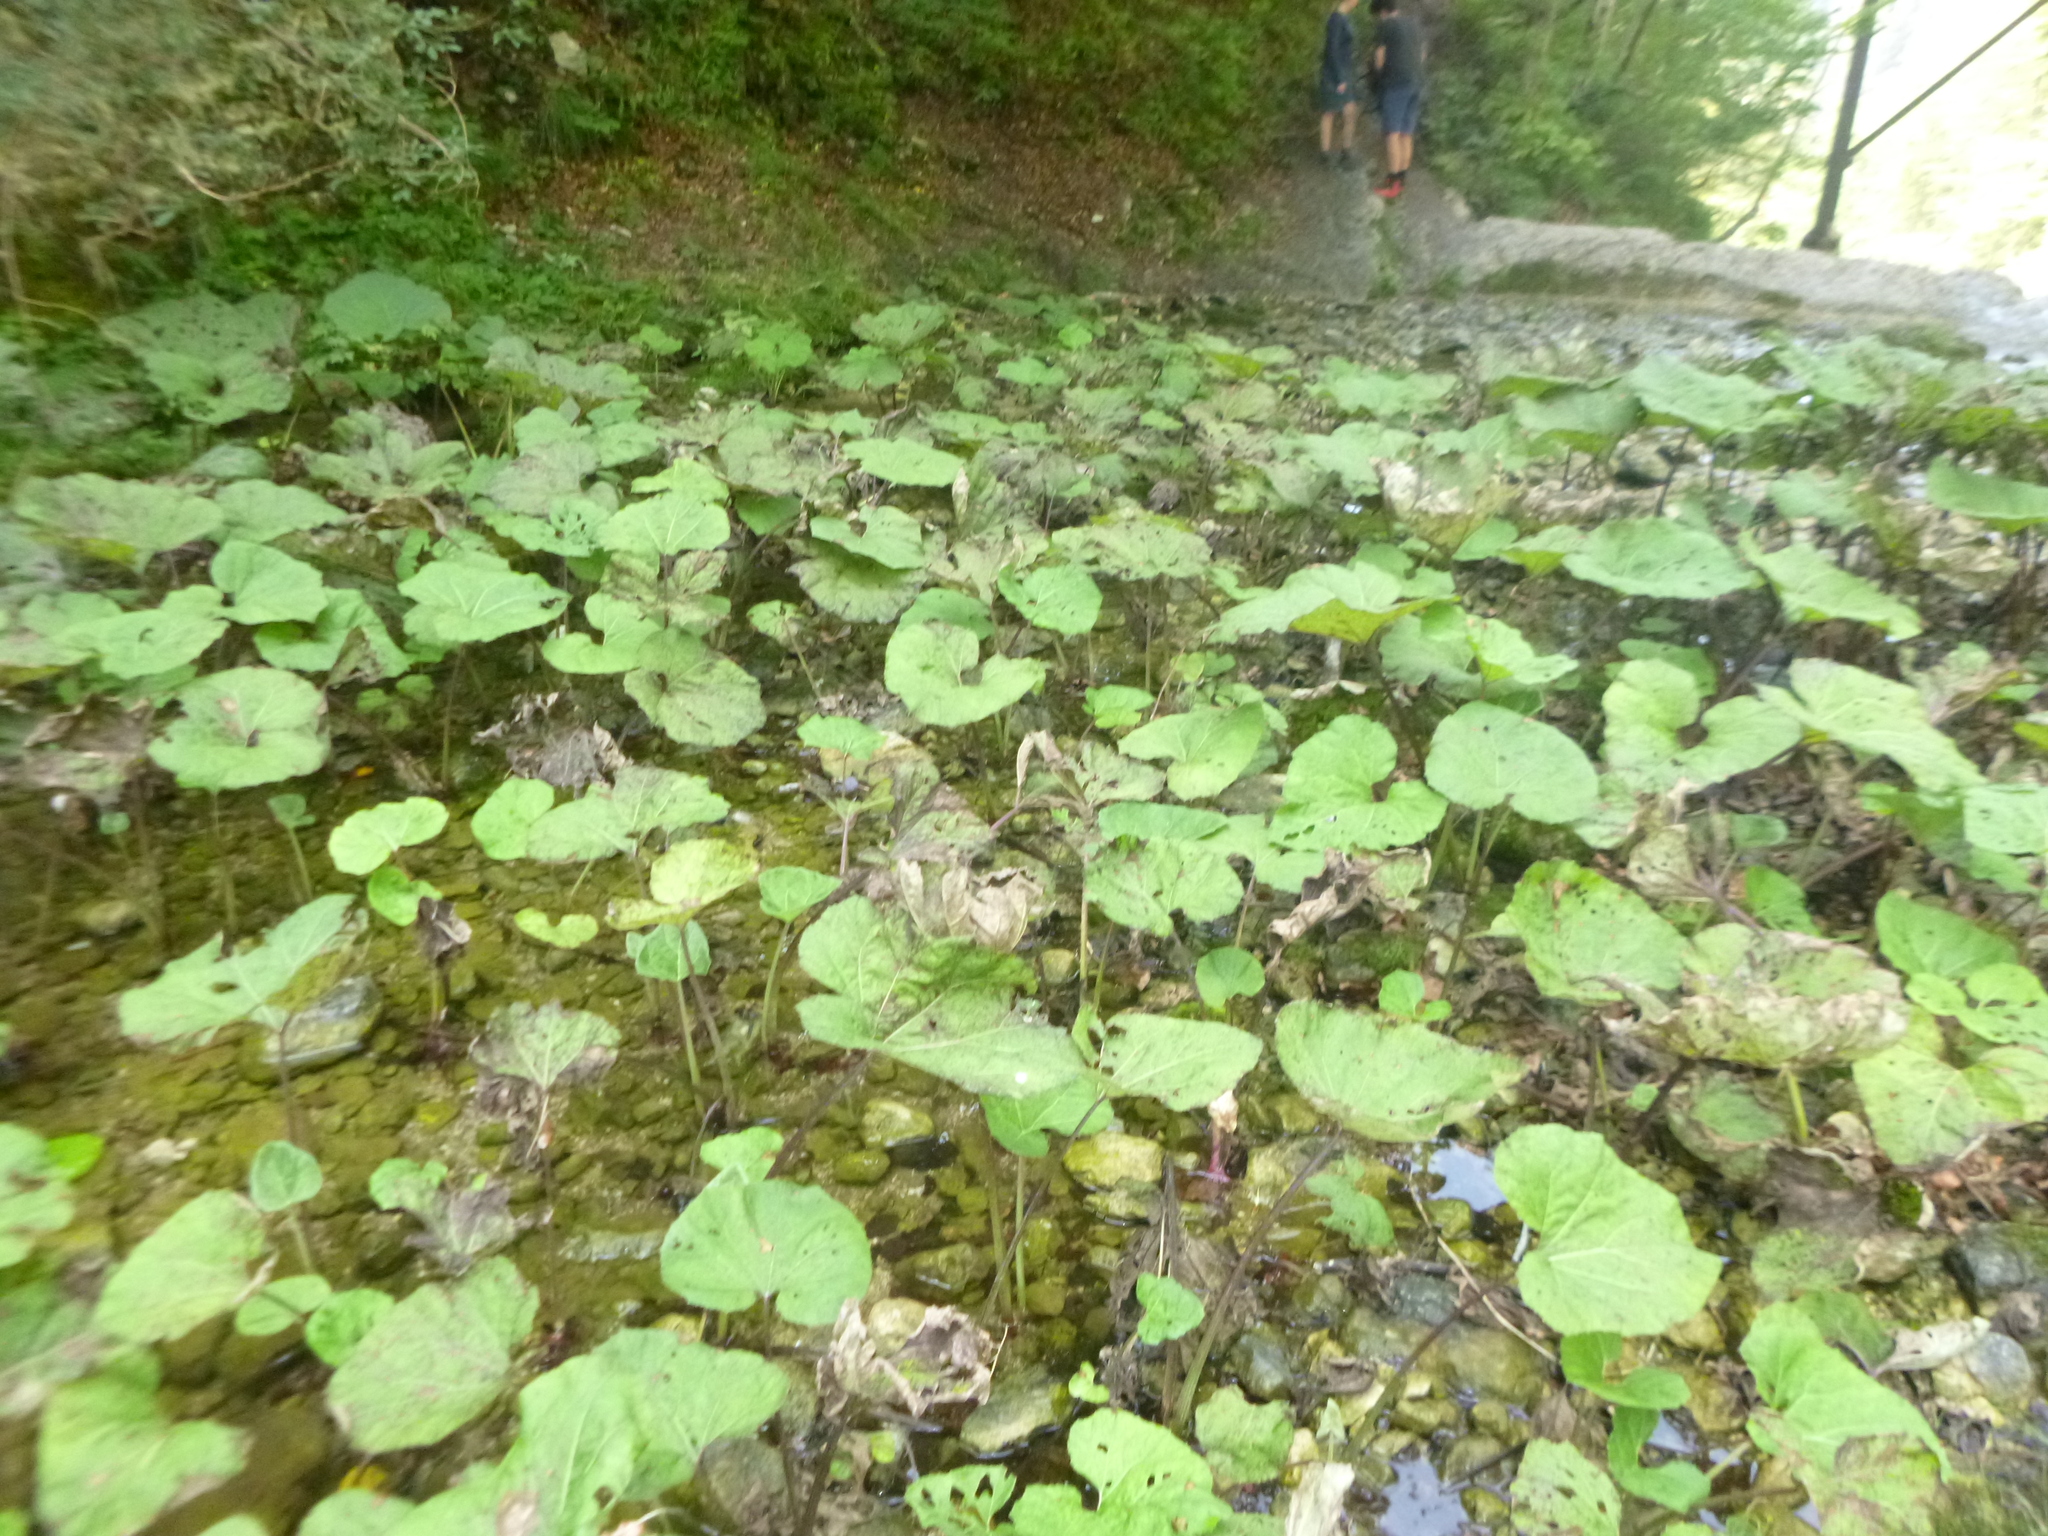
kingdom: Plantae
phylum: Tracheophyta
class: Magnoliopsida
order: Asterales
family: Asteraceae
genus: Petasites
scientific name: Petasites hybridus
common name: Butterbur
